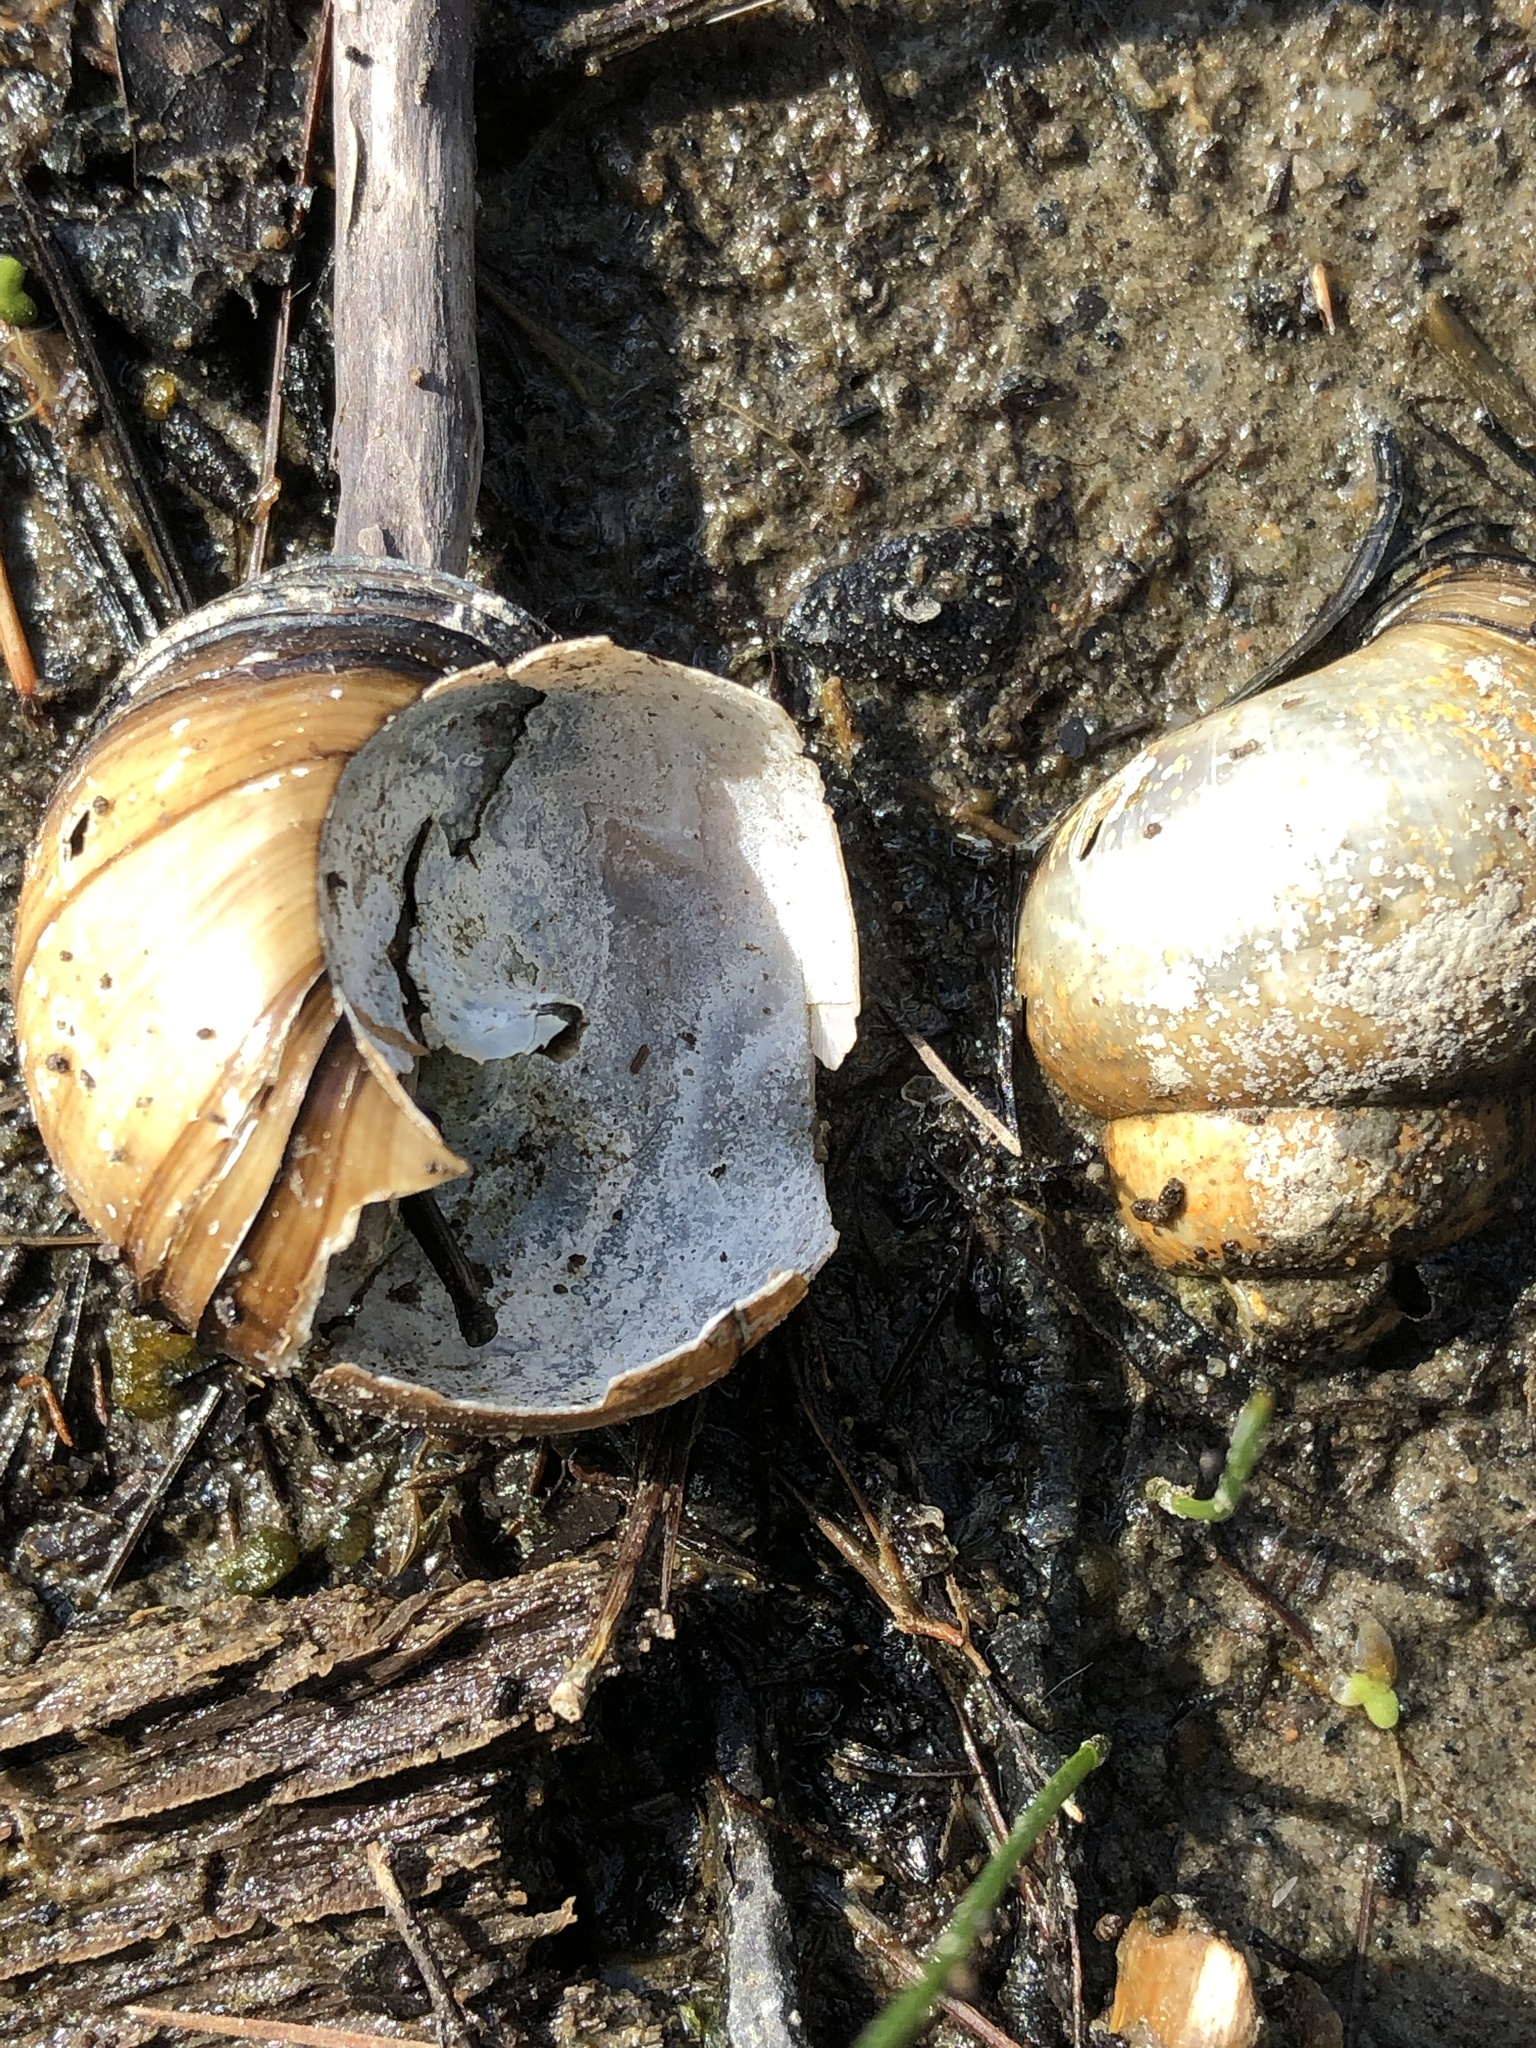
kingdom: Animalia
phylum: Mollusca
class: Gastropoda
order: Architaenioglossa
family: Viviparidae
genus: Cipangopaludina
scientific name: Cipangopaludina chinensis
